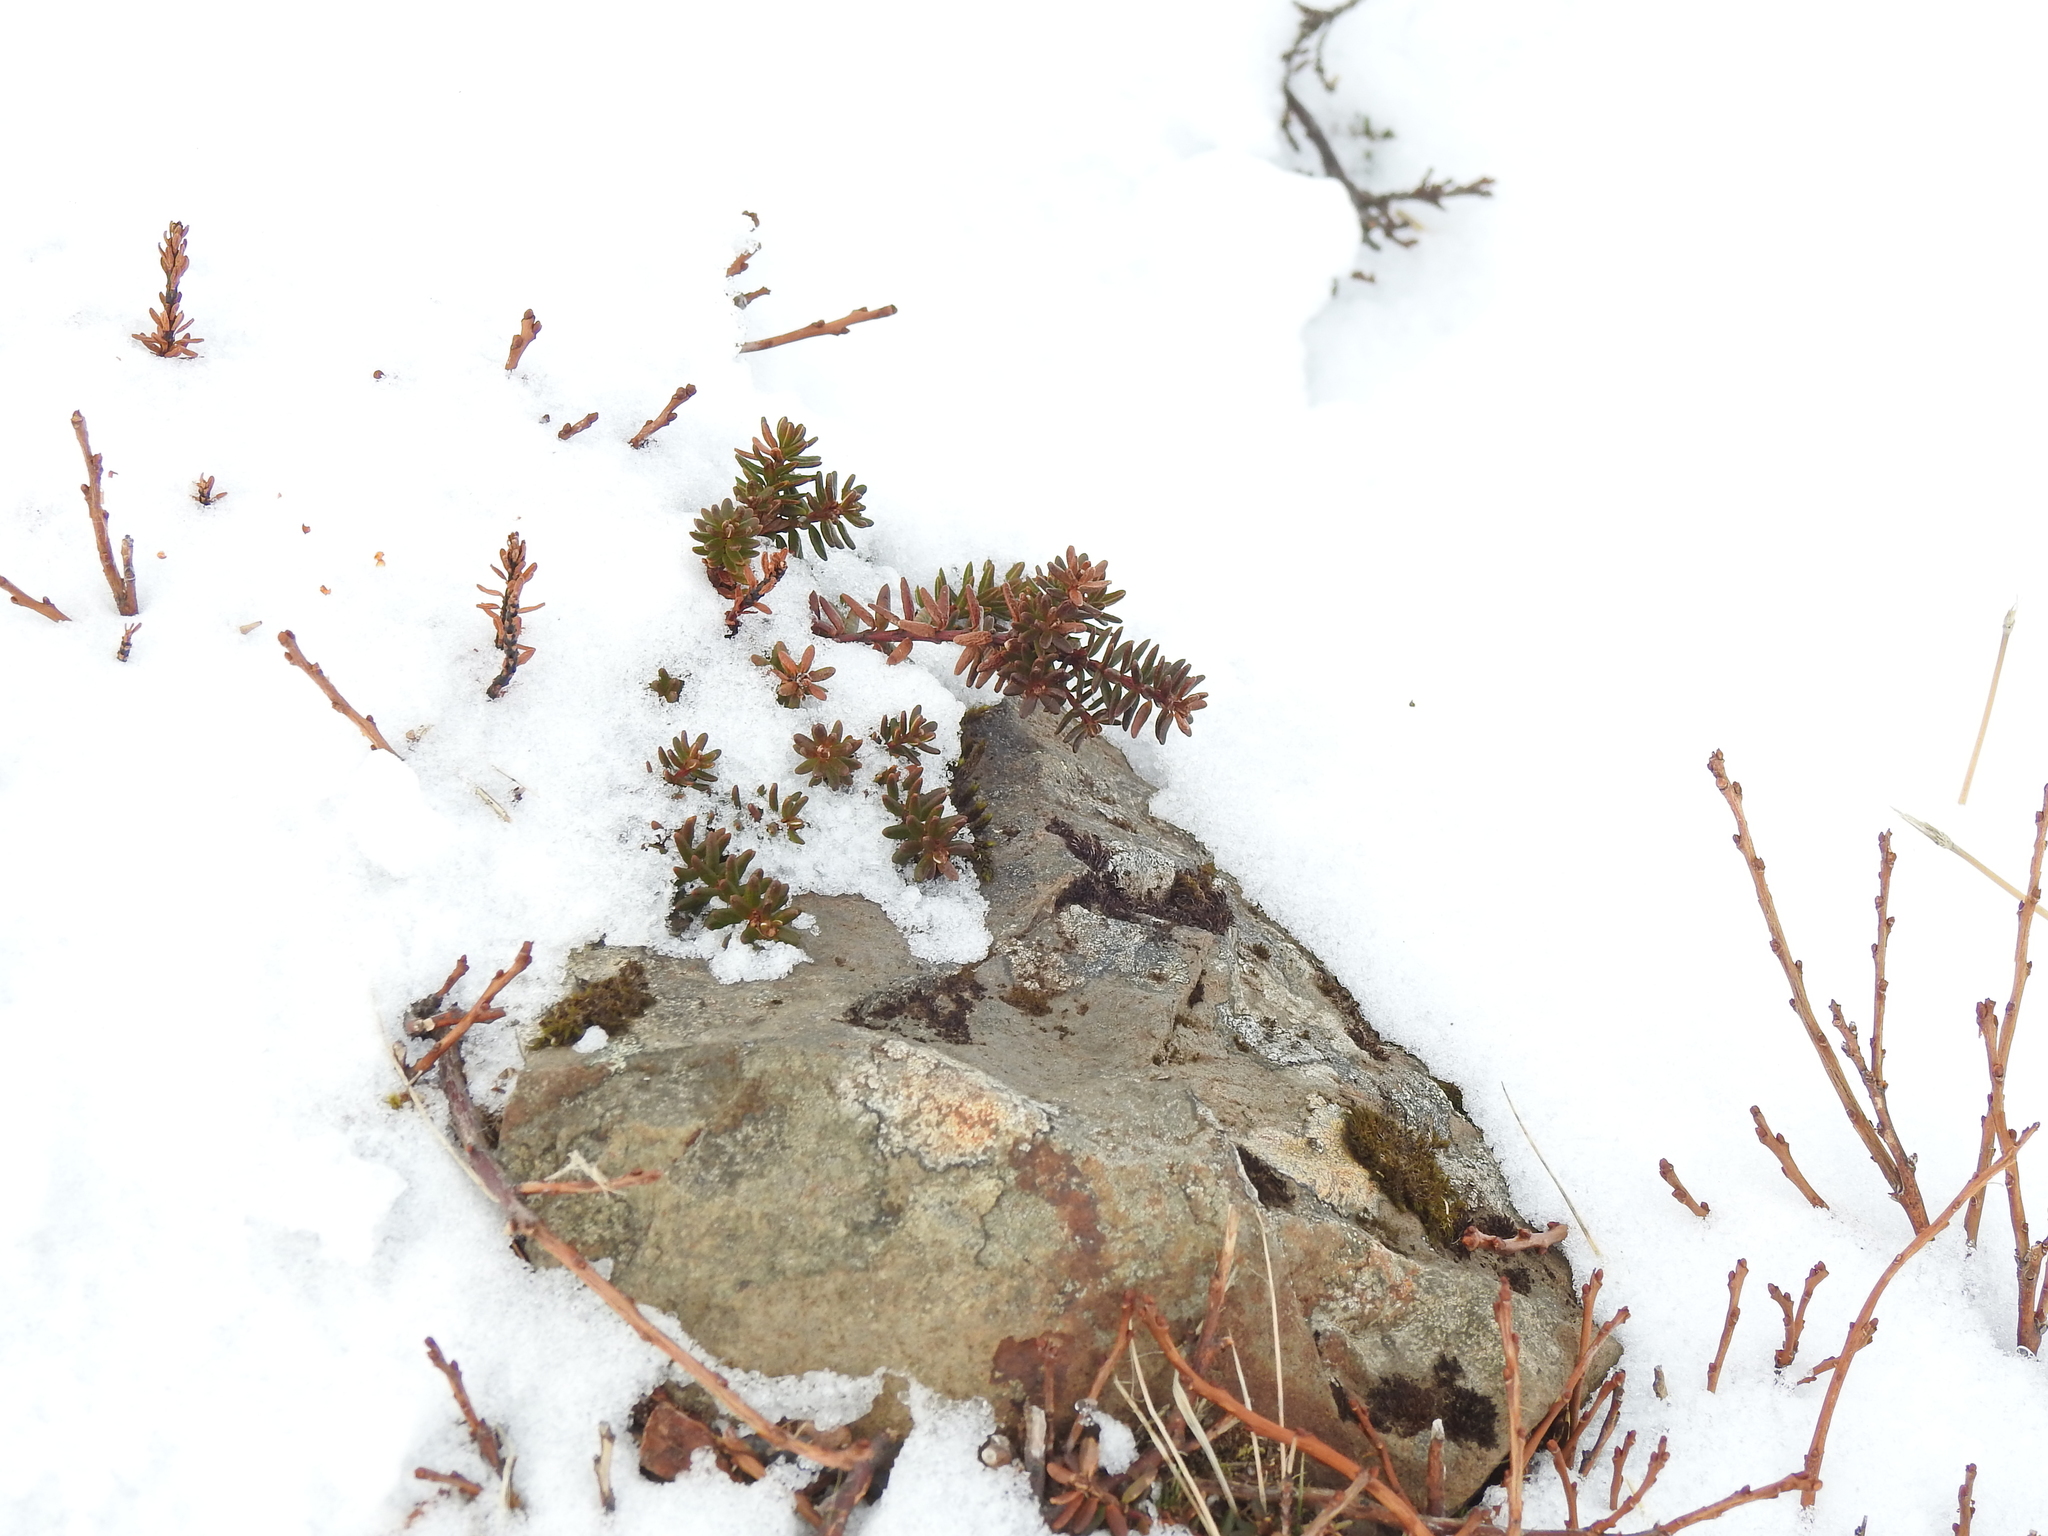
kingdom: Plantae
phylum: Tracheophyta
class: Magnoliopsida
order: Ericales
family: Ericaceae
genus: Empetrum
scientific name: Empetrum nigrum
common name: Black crowberry
